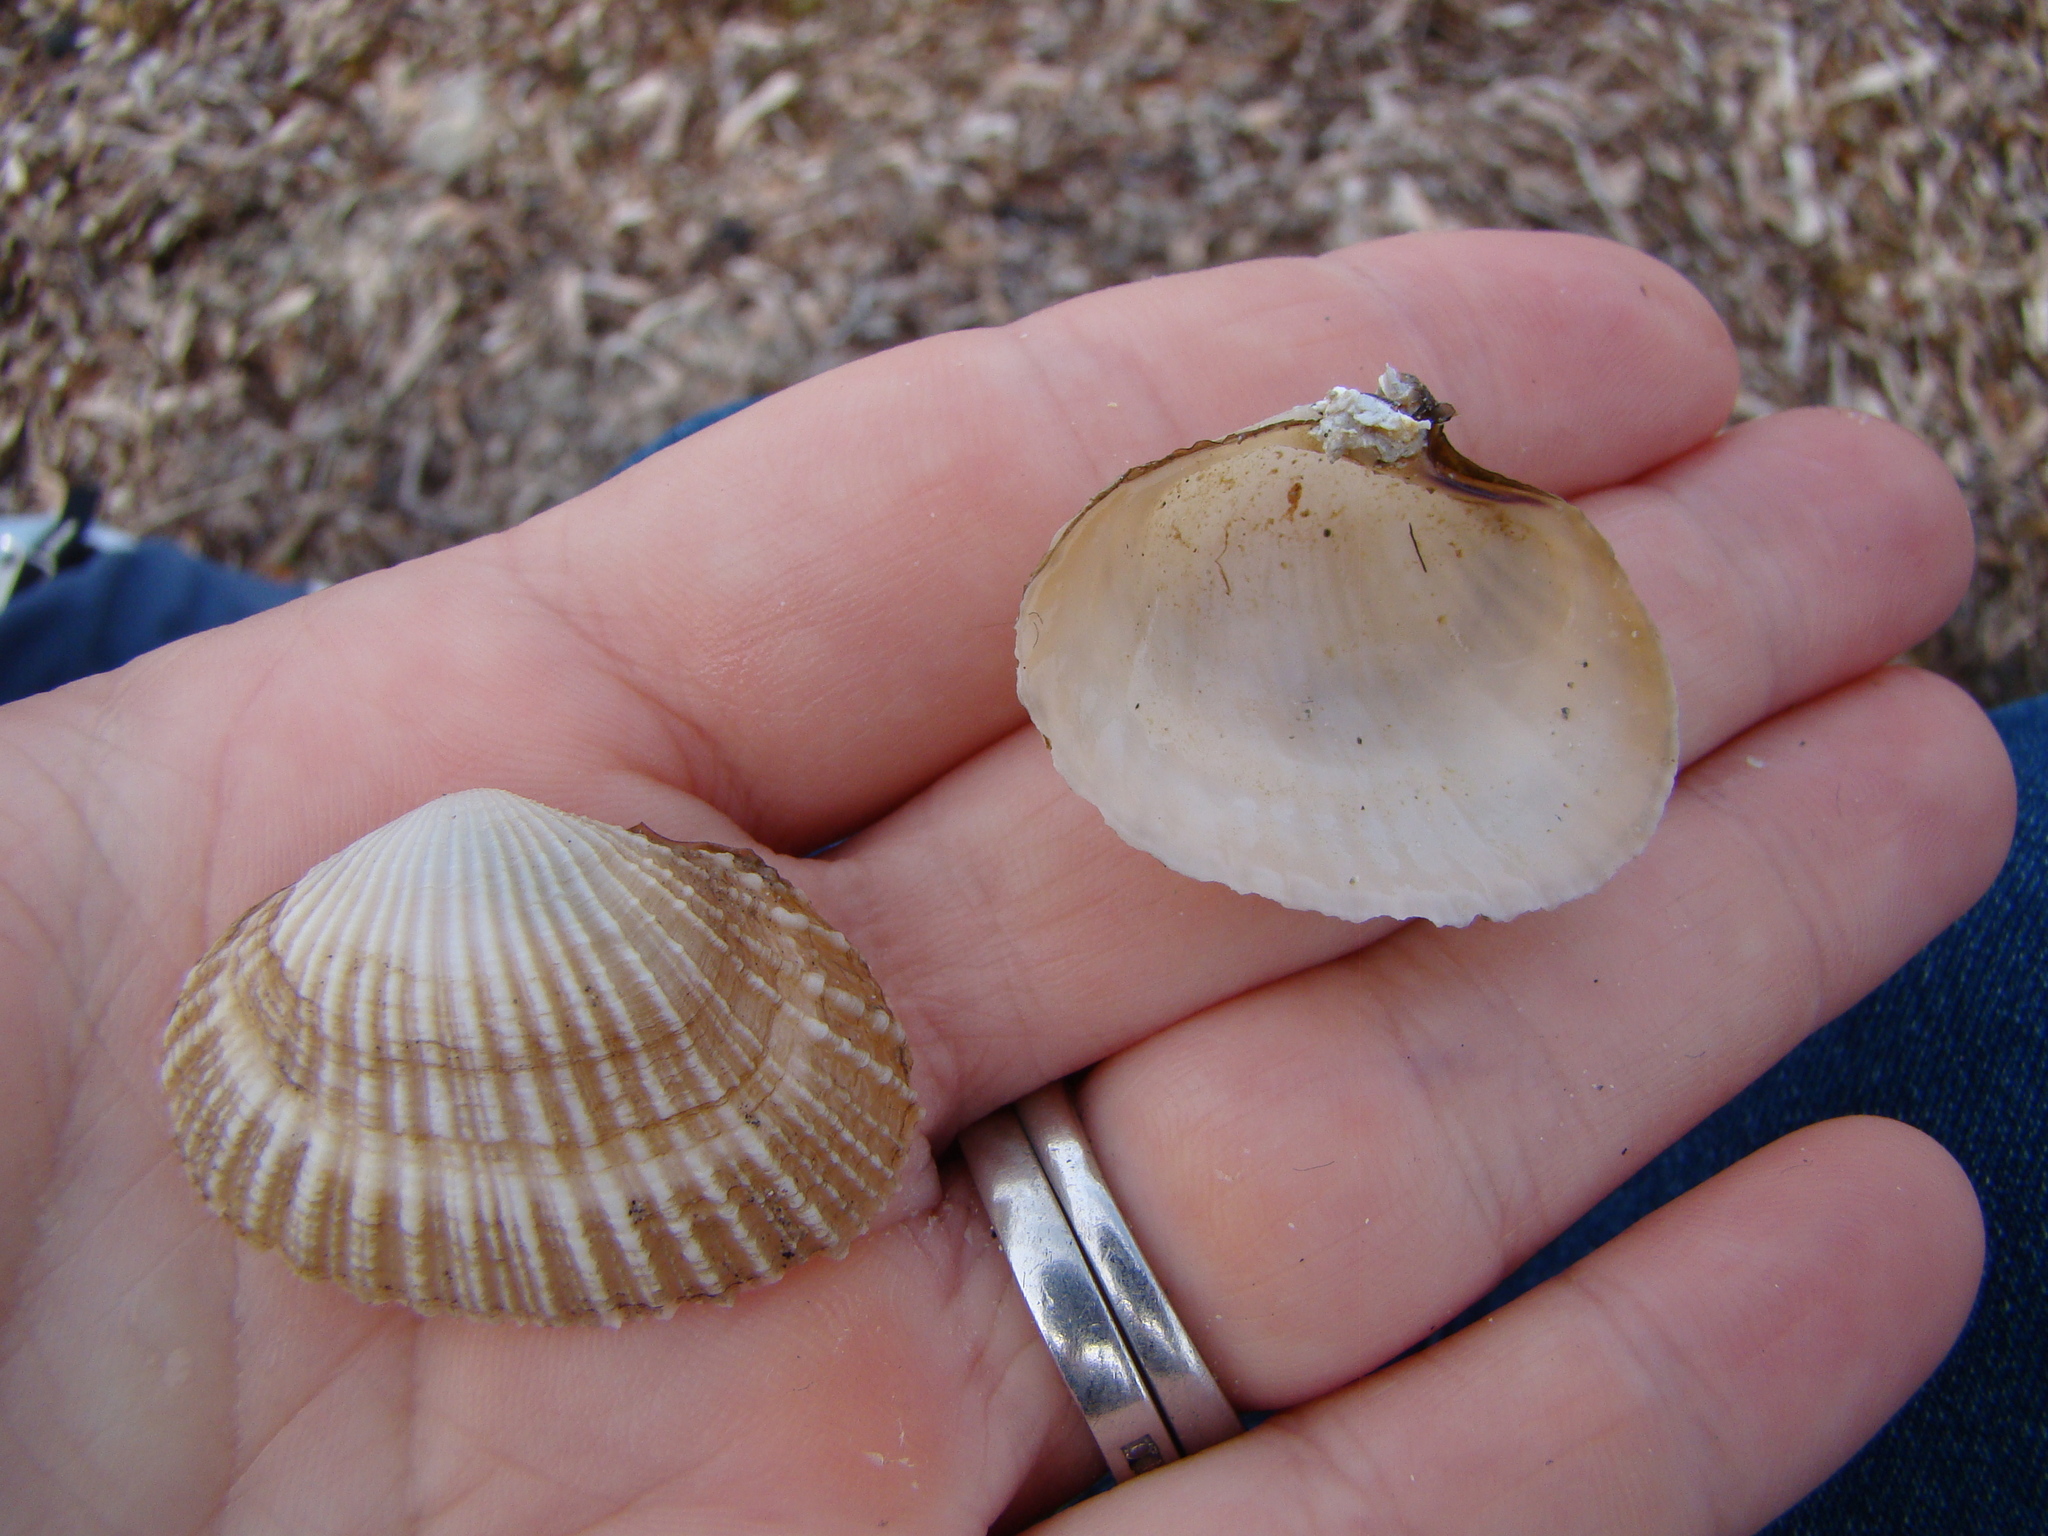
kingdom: Animalia
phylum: Mollusca
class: Bivalvia
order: Cardiida
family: Psammobiidae
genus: Asaphis
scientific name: Asaphis violascens
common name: Pacific asaphis
